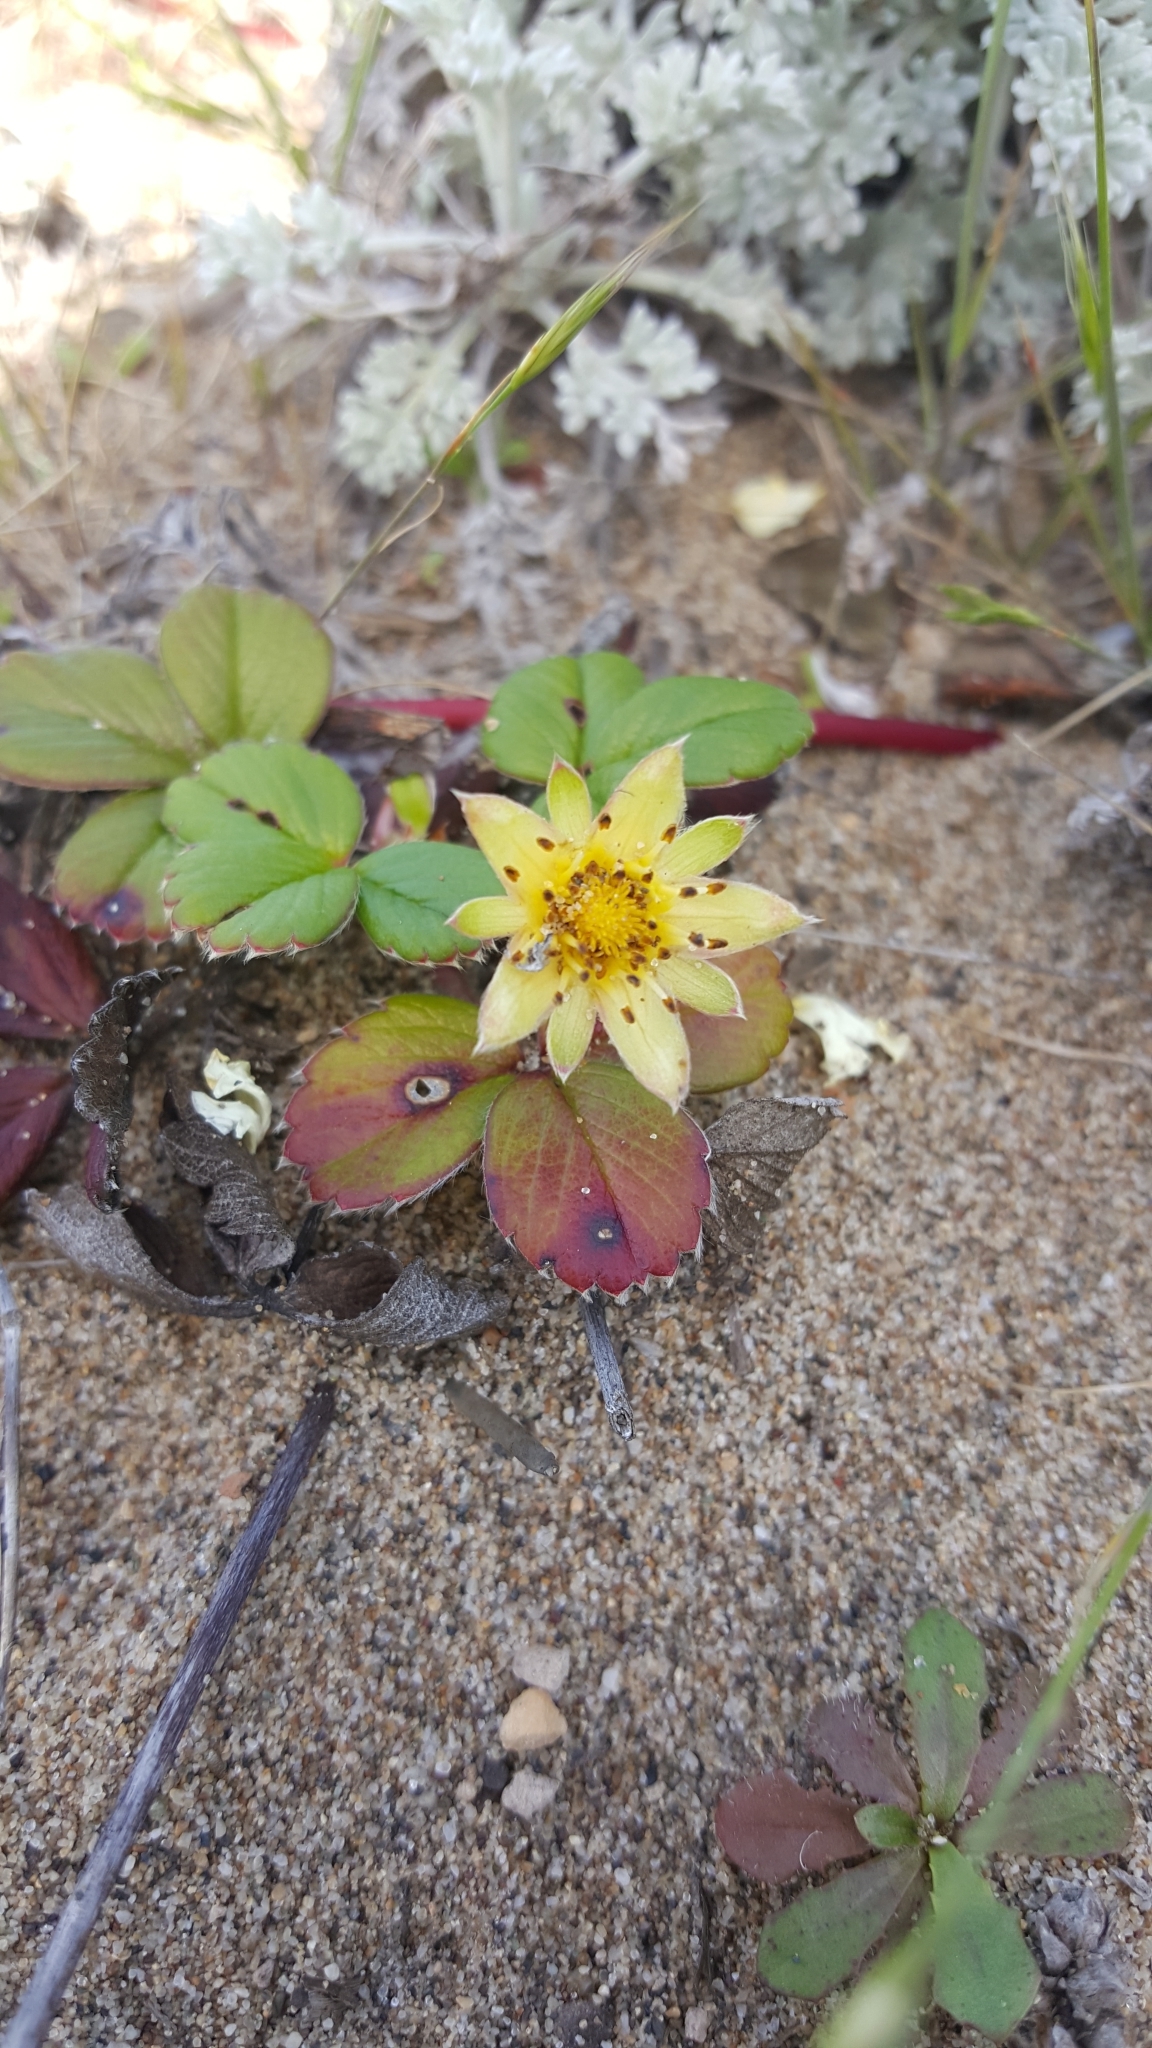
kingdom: Plantae
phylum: Tracheophyta
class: Magnoliopsida
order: Rosales
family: Rosaceae
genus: Fragaria
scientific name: Fragaria chiloensis
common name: Beach strawberry
